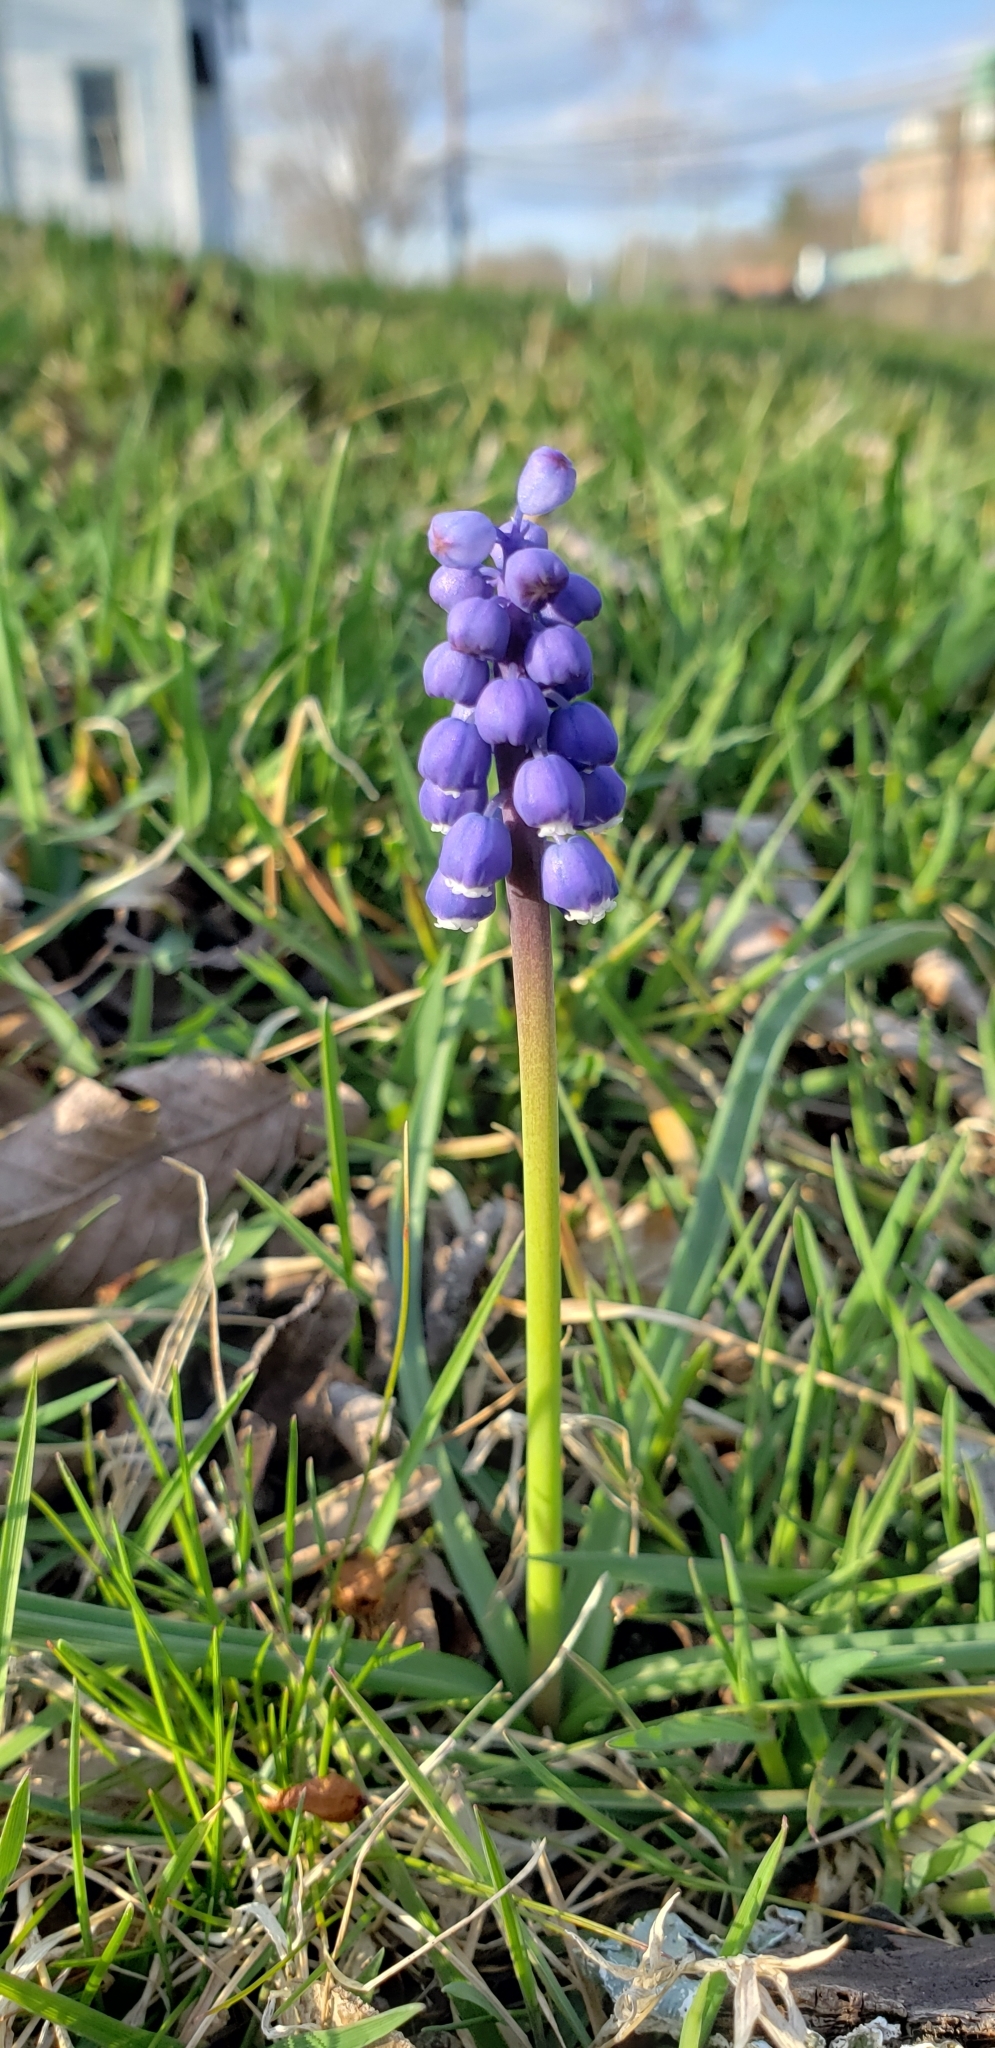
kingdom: Plantae
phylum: Tracheophyta
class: Liliopsida
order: Asparagales
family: Asparagaceae
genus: Muscari
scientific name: Muscari botryoides
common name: Compact grape-hyacinth
